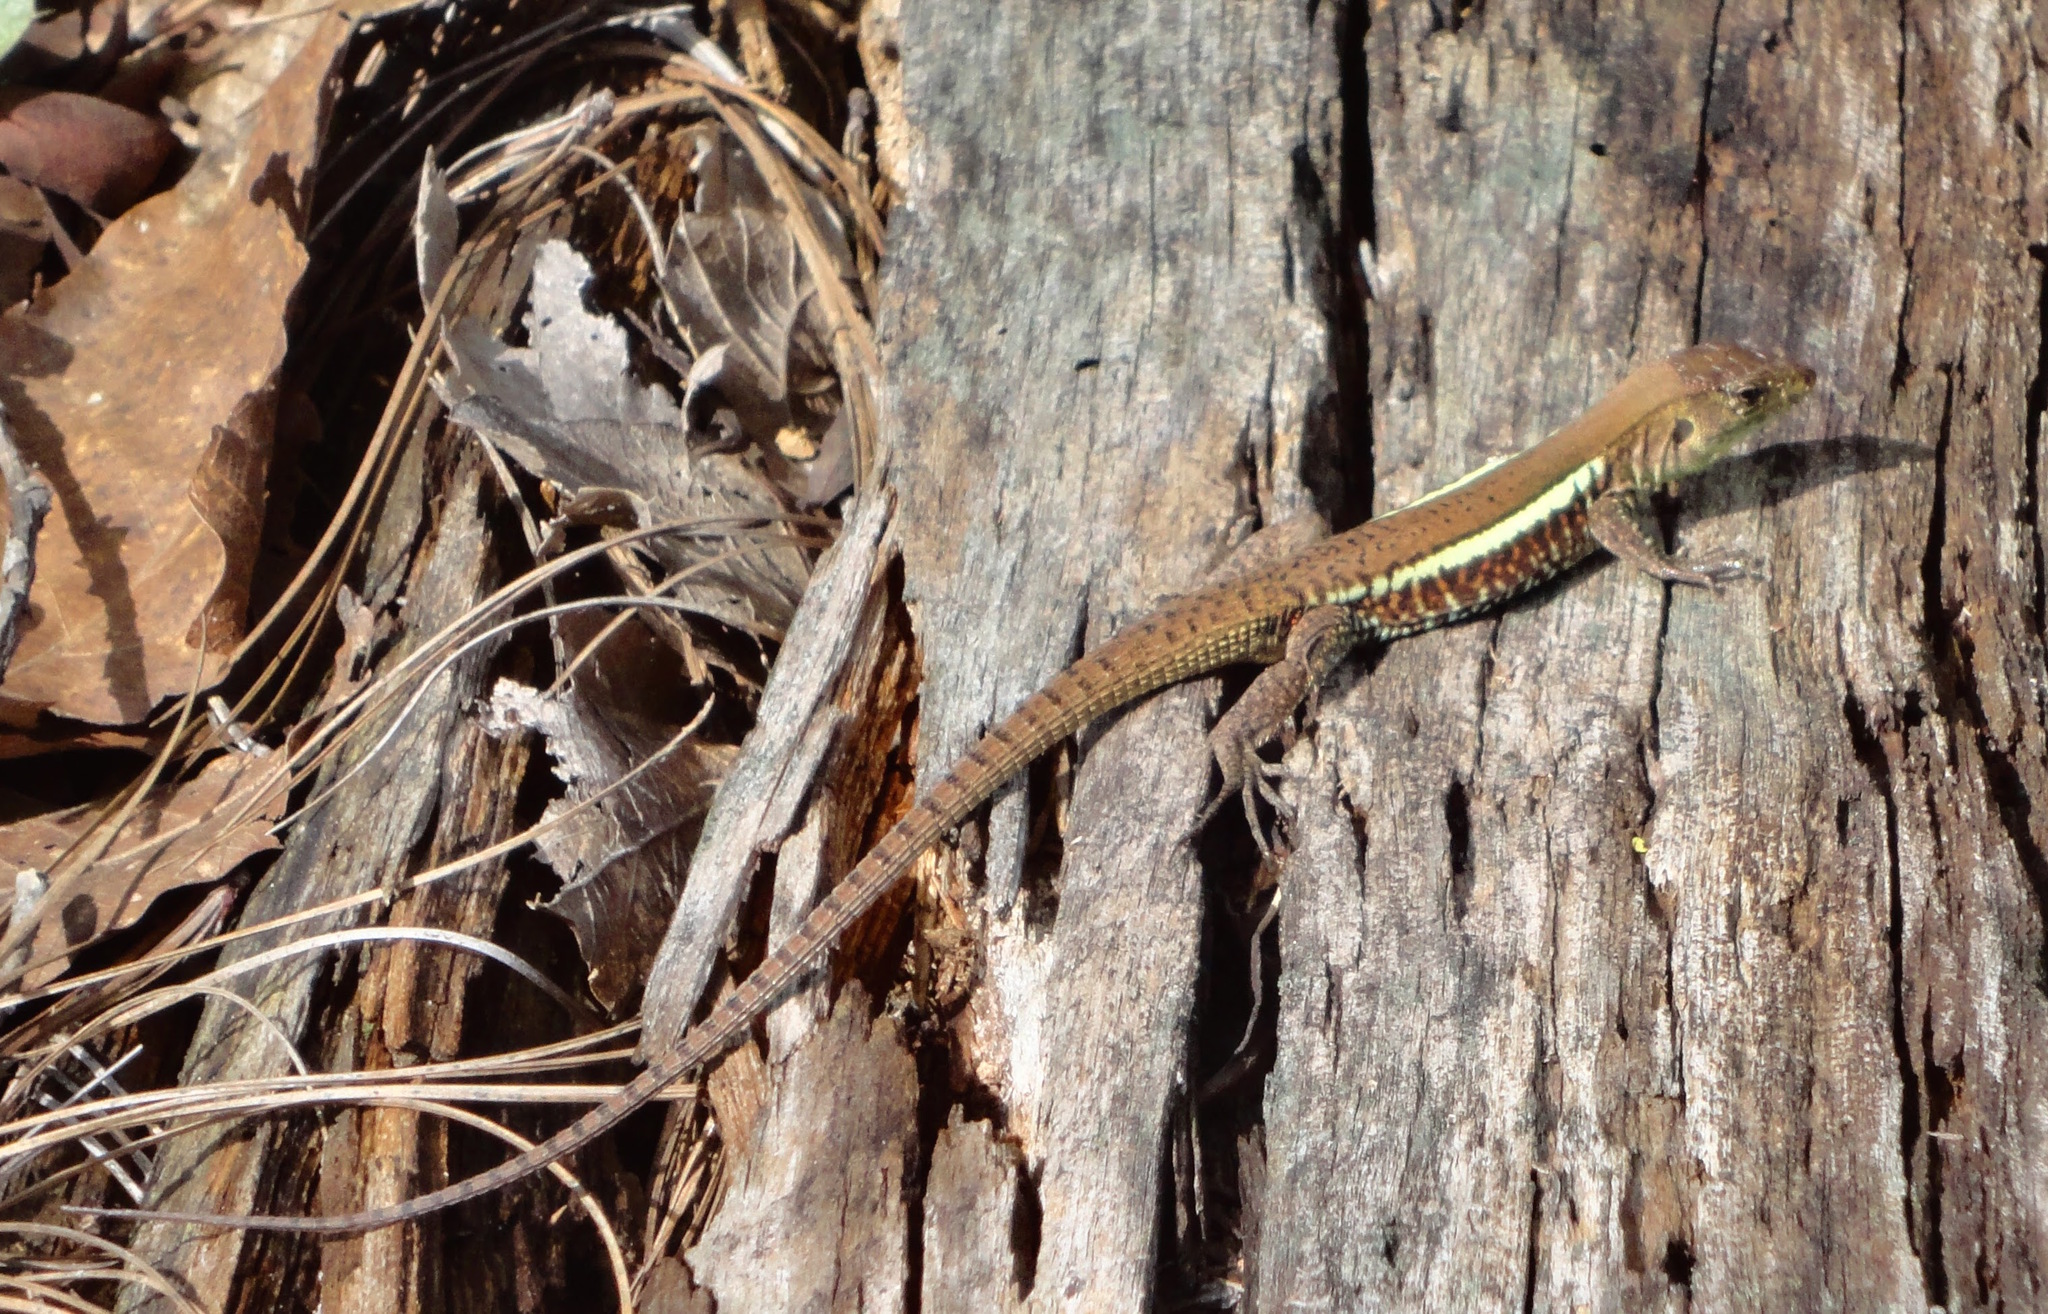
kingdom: Animalia
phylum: Chordata
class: Squamata
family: Teiidae
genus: Holcosus
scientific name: Holcosus undulatus
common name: Rainbow ameiva
